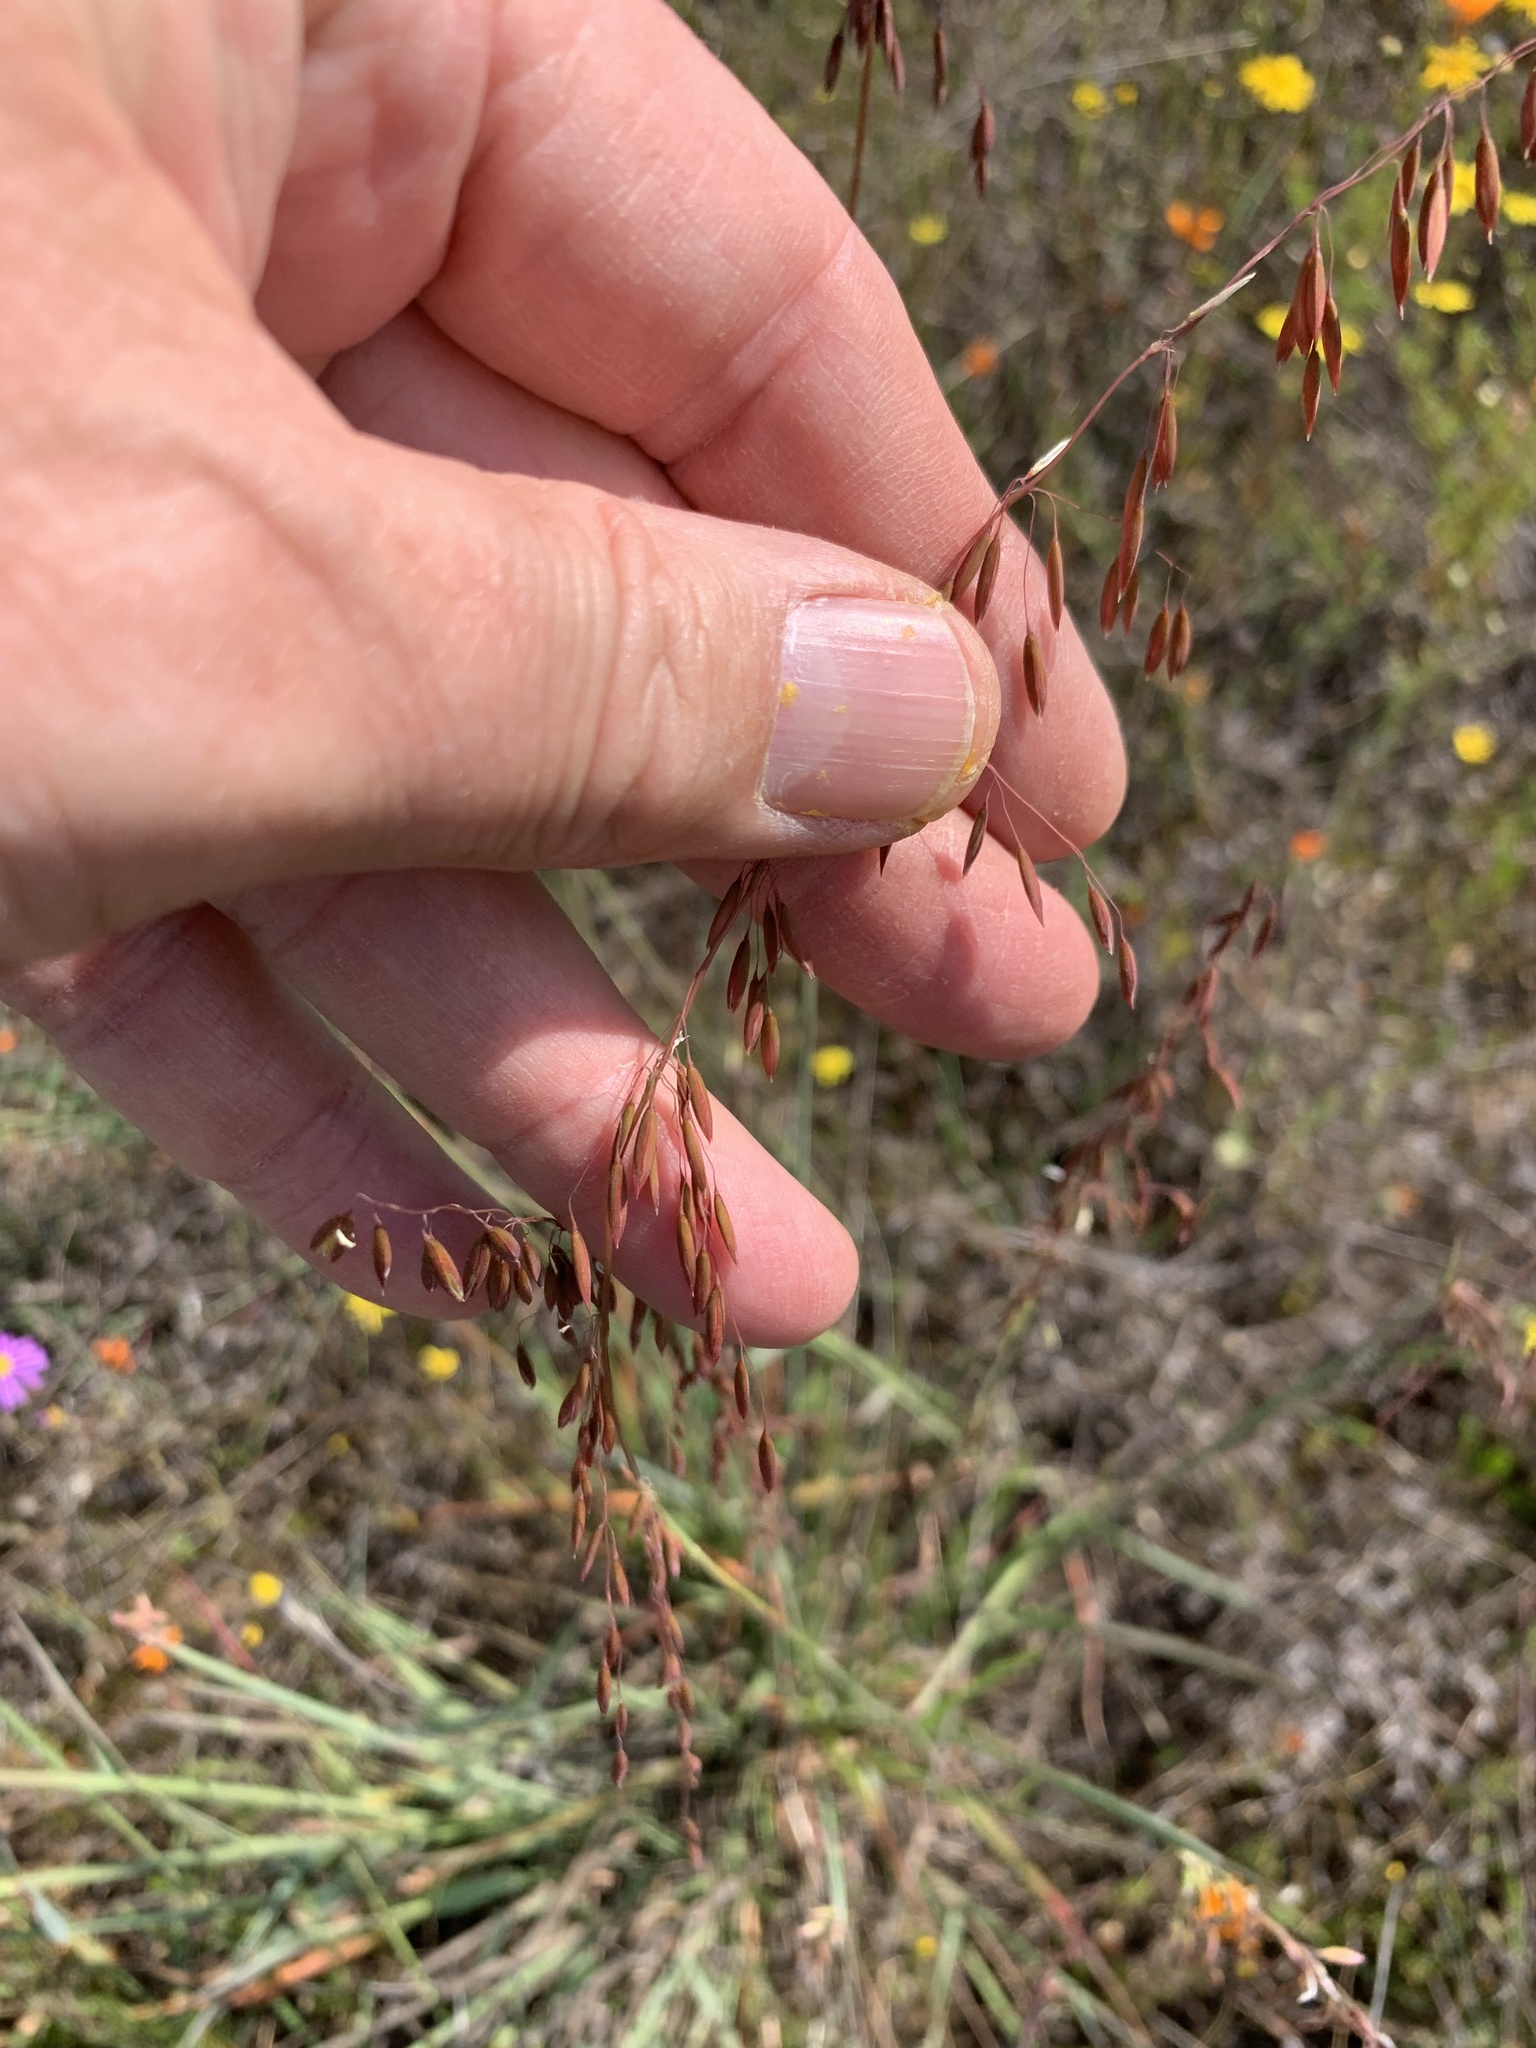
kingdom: Plantae
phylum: Tracheophyta
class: Liliopsida
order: Poales
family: Poaceae
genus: Ehrharta
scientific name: Ehrharta calycina
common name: Perennial veldtgrass
